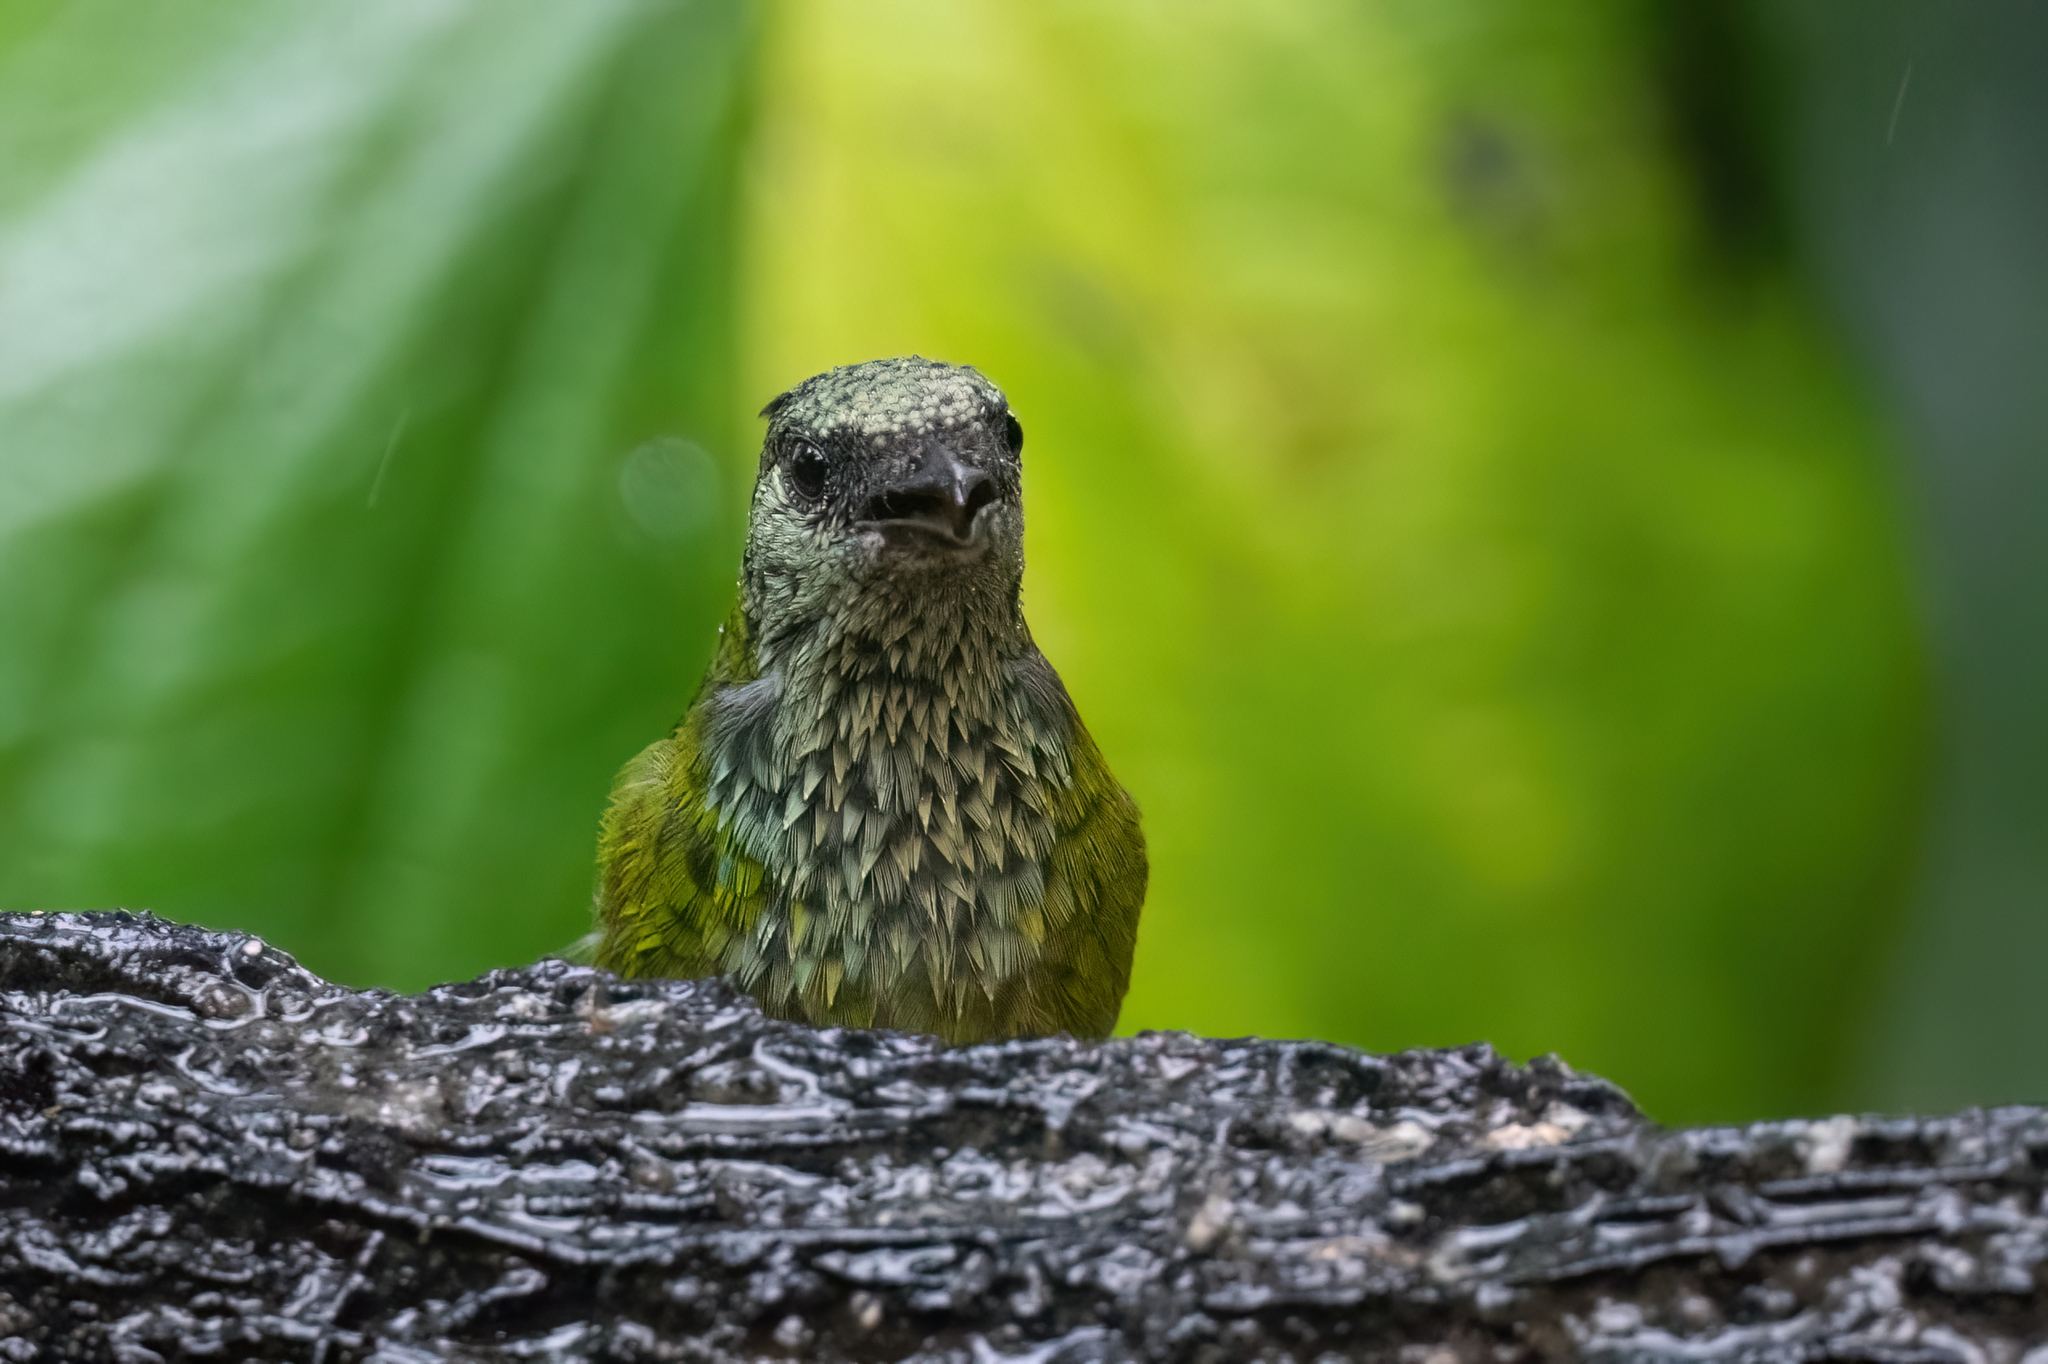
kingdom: Animalia
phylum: Chordata
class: Aves
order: Passeriformes
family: Thraupidae
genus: Stilpnia
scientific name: Stilpnia heinei
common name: Black-capped tanager
